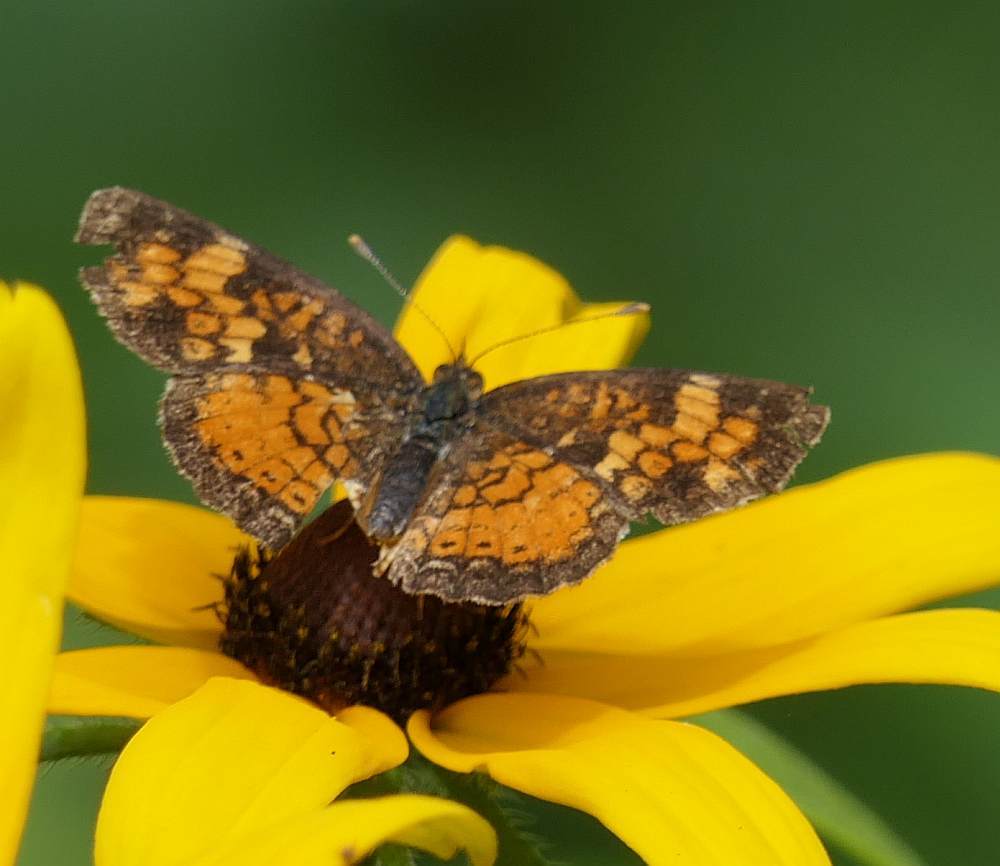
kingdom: Animalia
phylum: Arthropoda
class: Insecta
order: Lepidoptera
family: Nymphalidae
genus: Phyciodes
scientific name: Phyciodes tharos
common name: Pearl crescent
